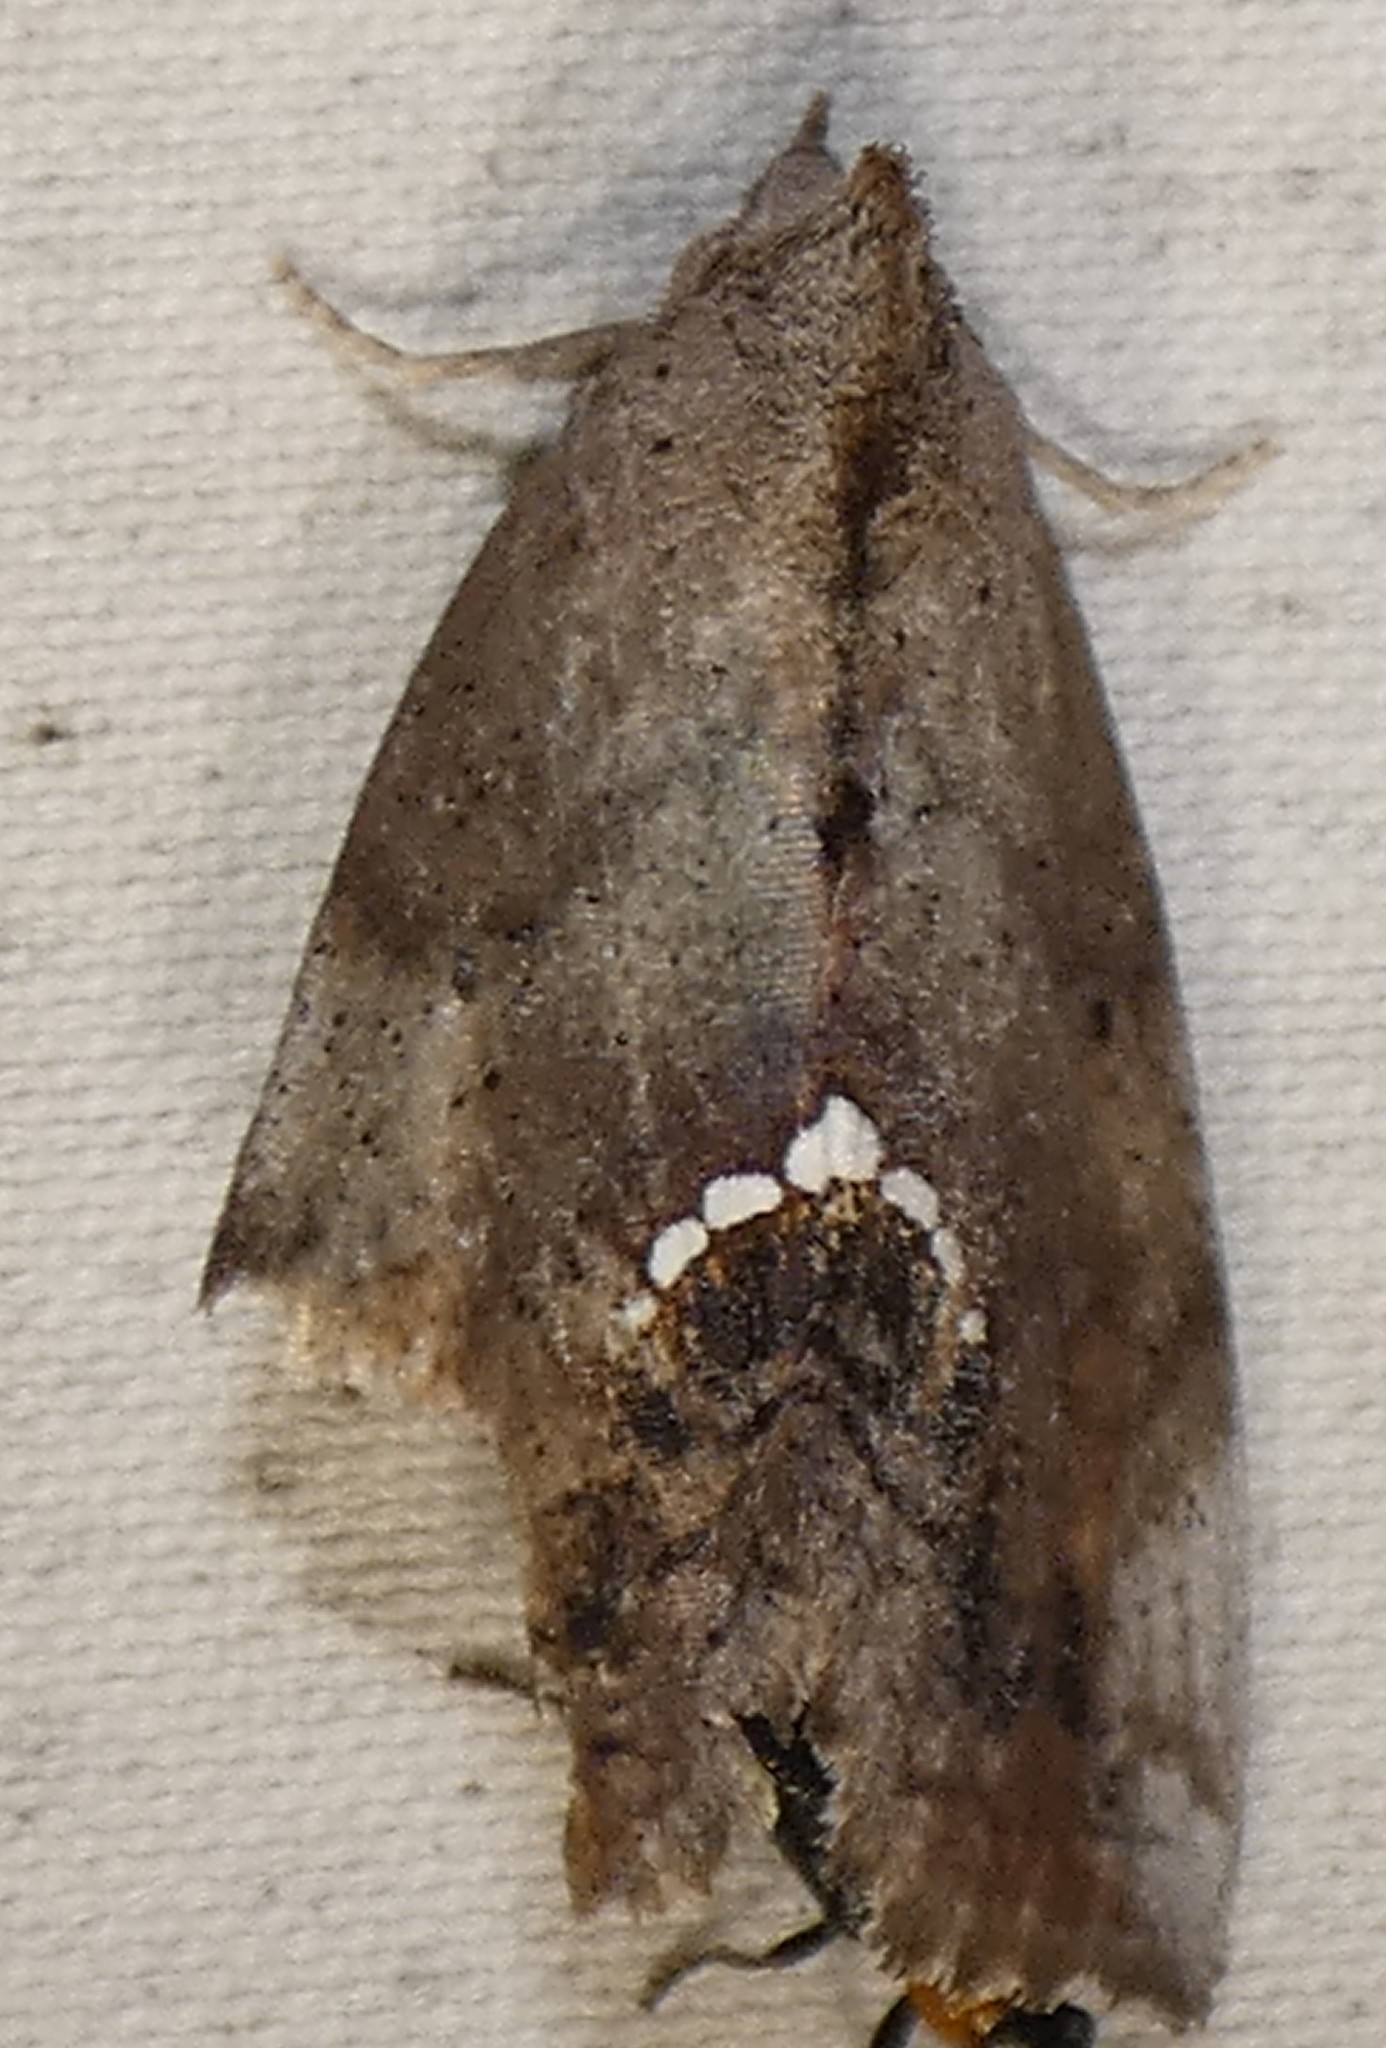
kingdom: Animalia
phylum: Arthropoda
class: Insecta
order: Lepidoptera
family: Erebidae
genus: Hypsoropha
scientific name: Hypsoropha hormos
